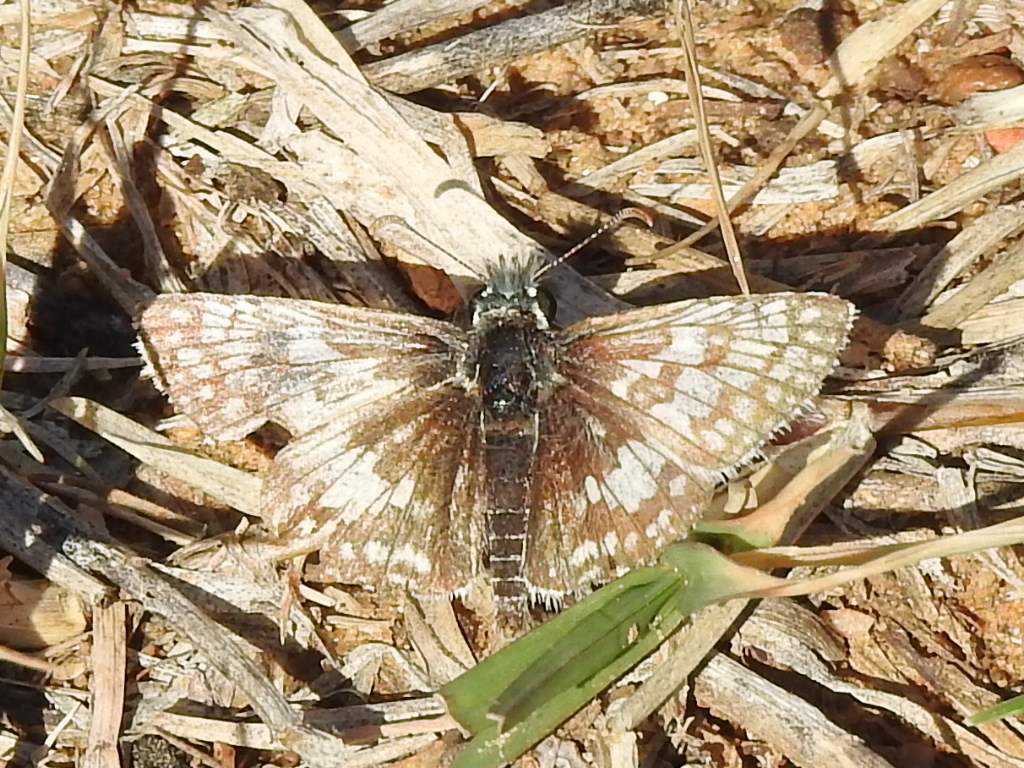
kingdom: Animalia
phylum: Arthropoda
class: Insecta
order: Lepidoptera
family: Hesperiidae
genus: Burnsius
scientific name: Burnsius
